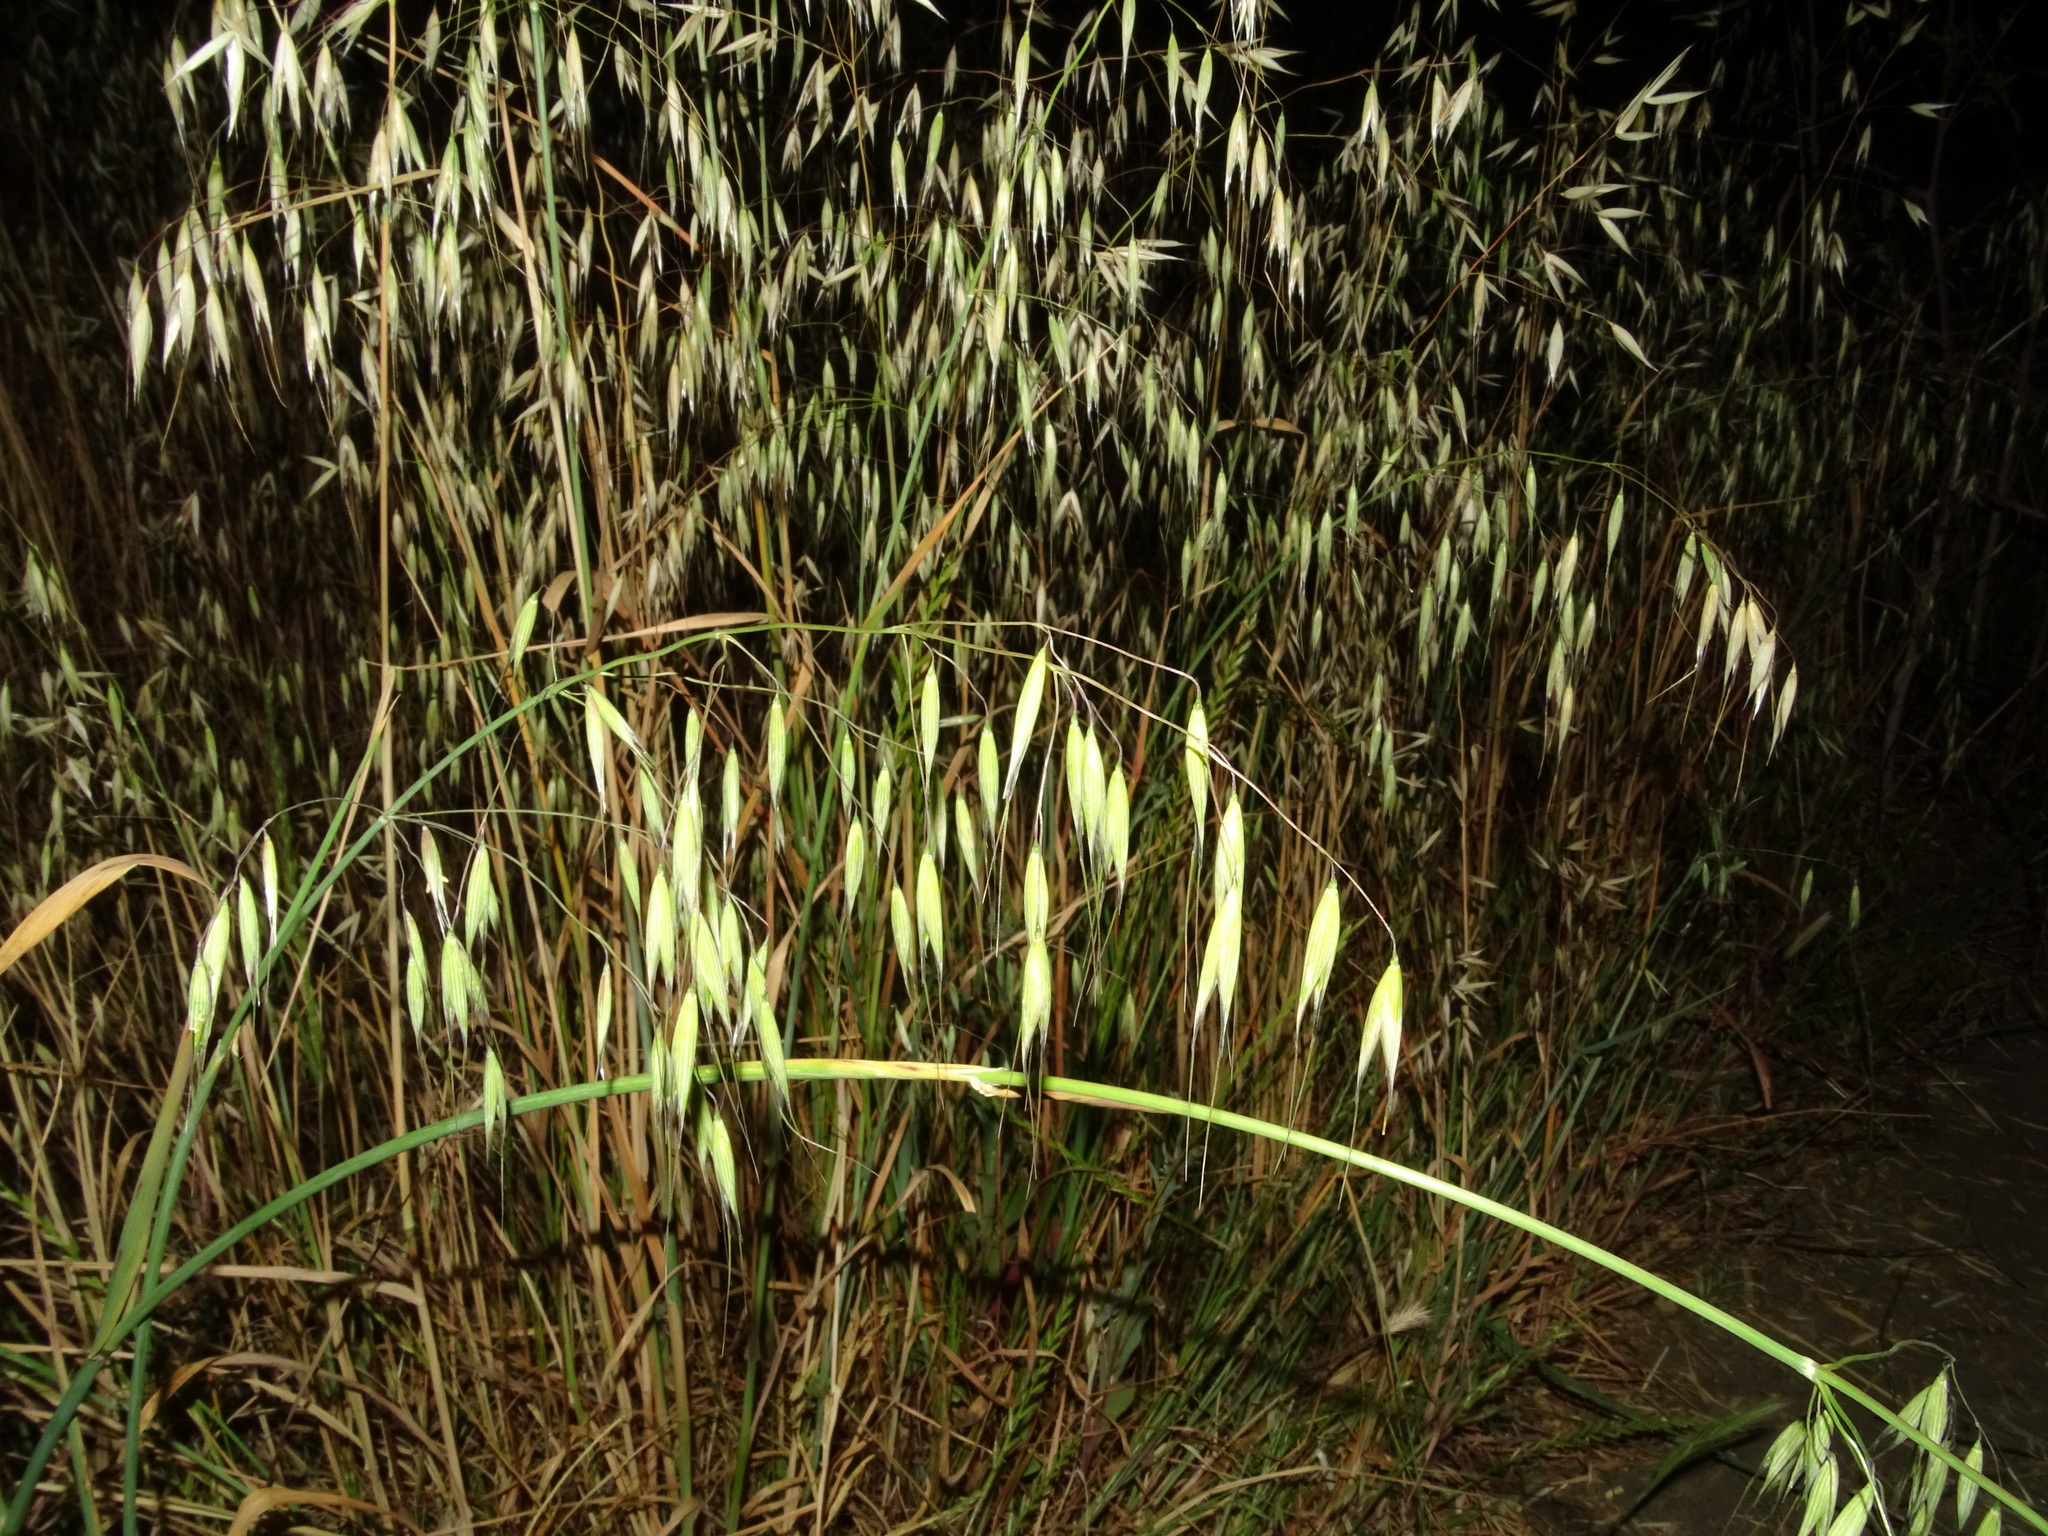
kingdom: Plantae
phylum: Tracheophyta
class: Liliopsida
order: Poales
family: Poaceae
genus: Avena
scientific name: Avena fatua
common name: Wild oat
